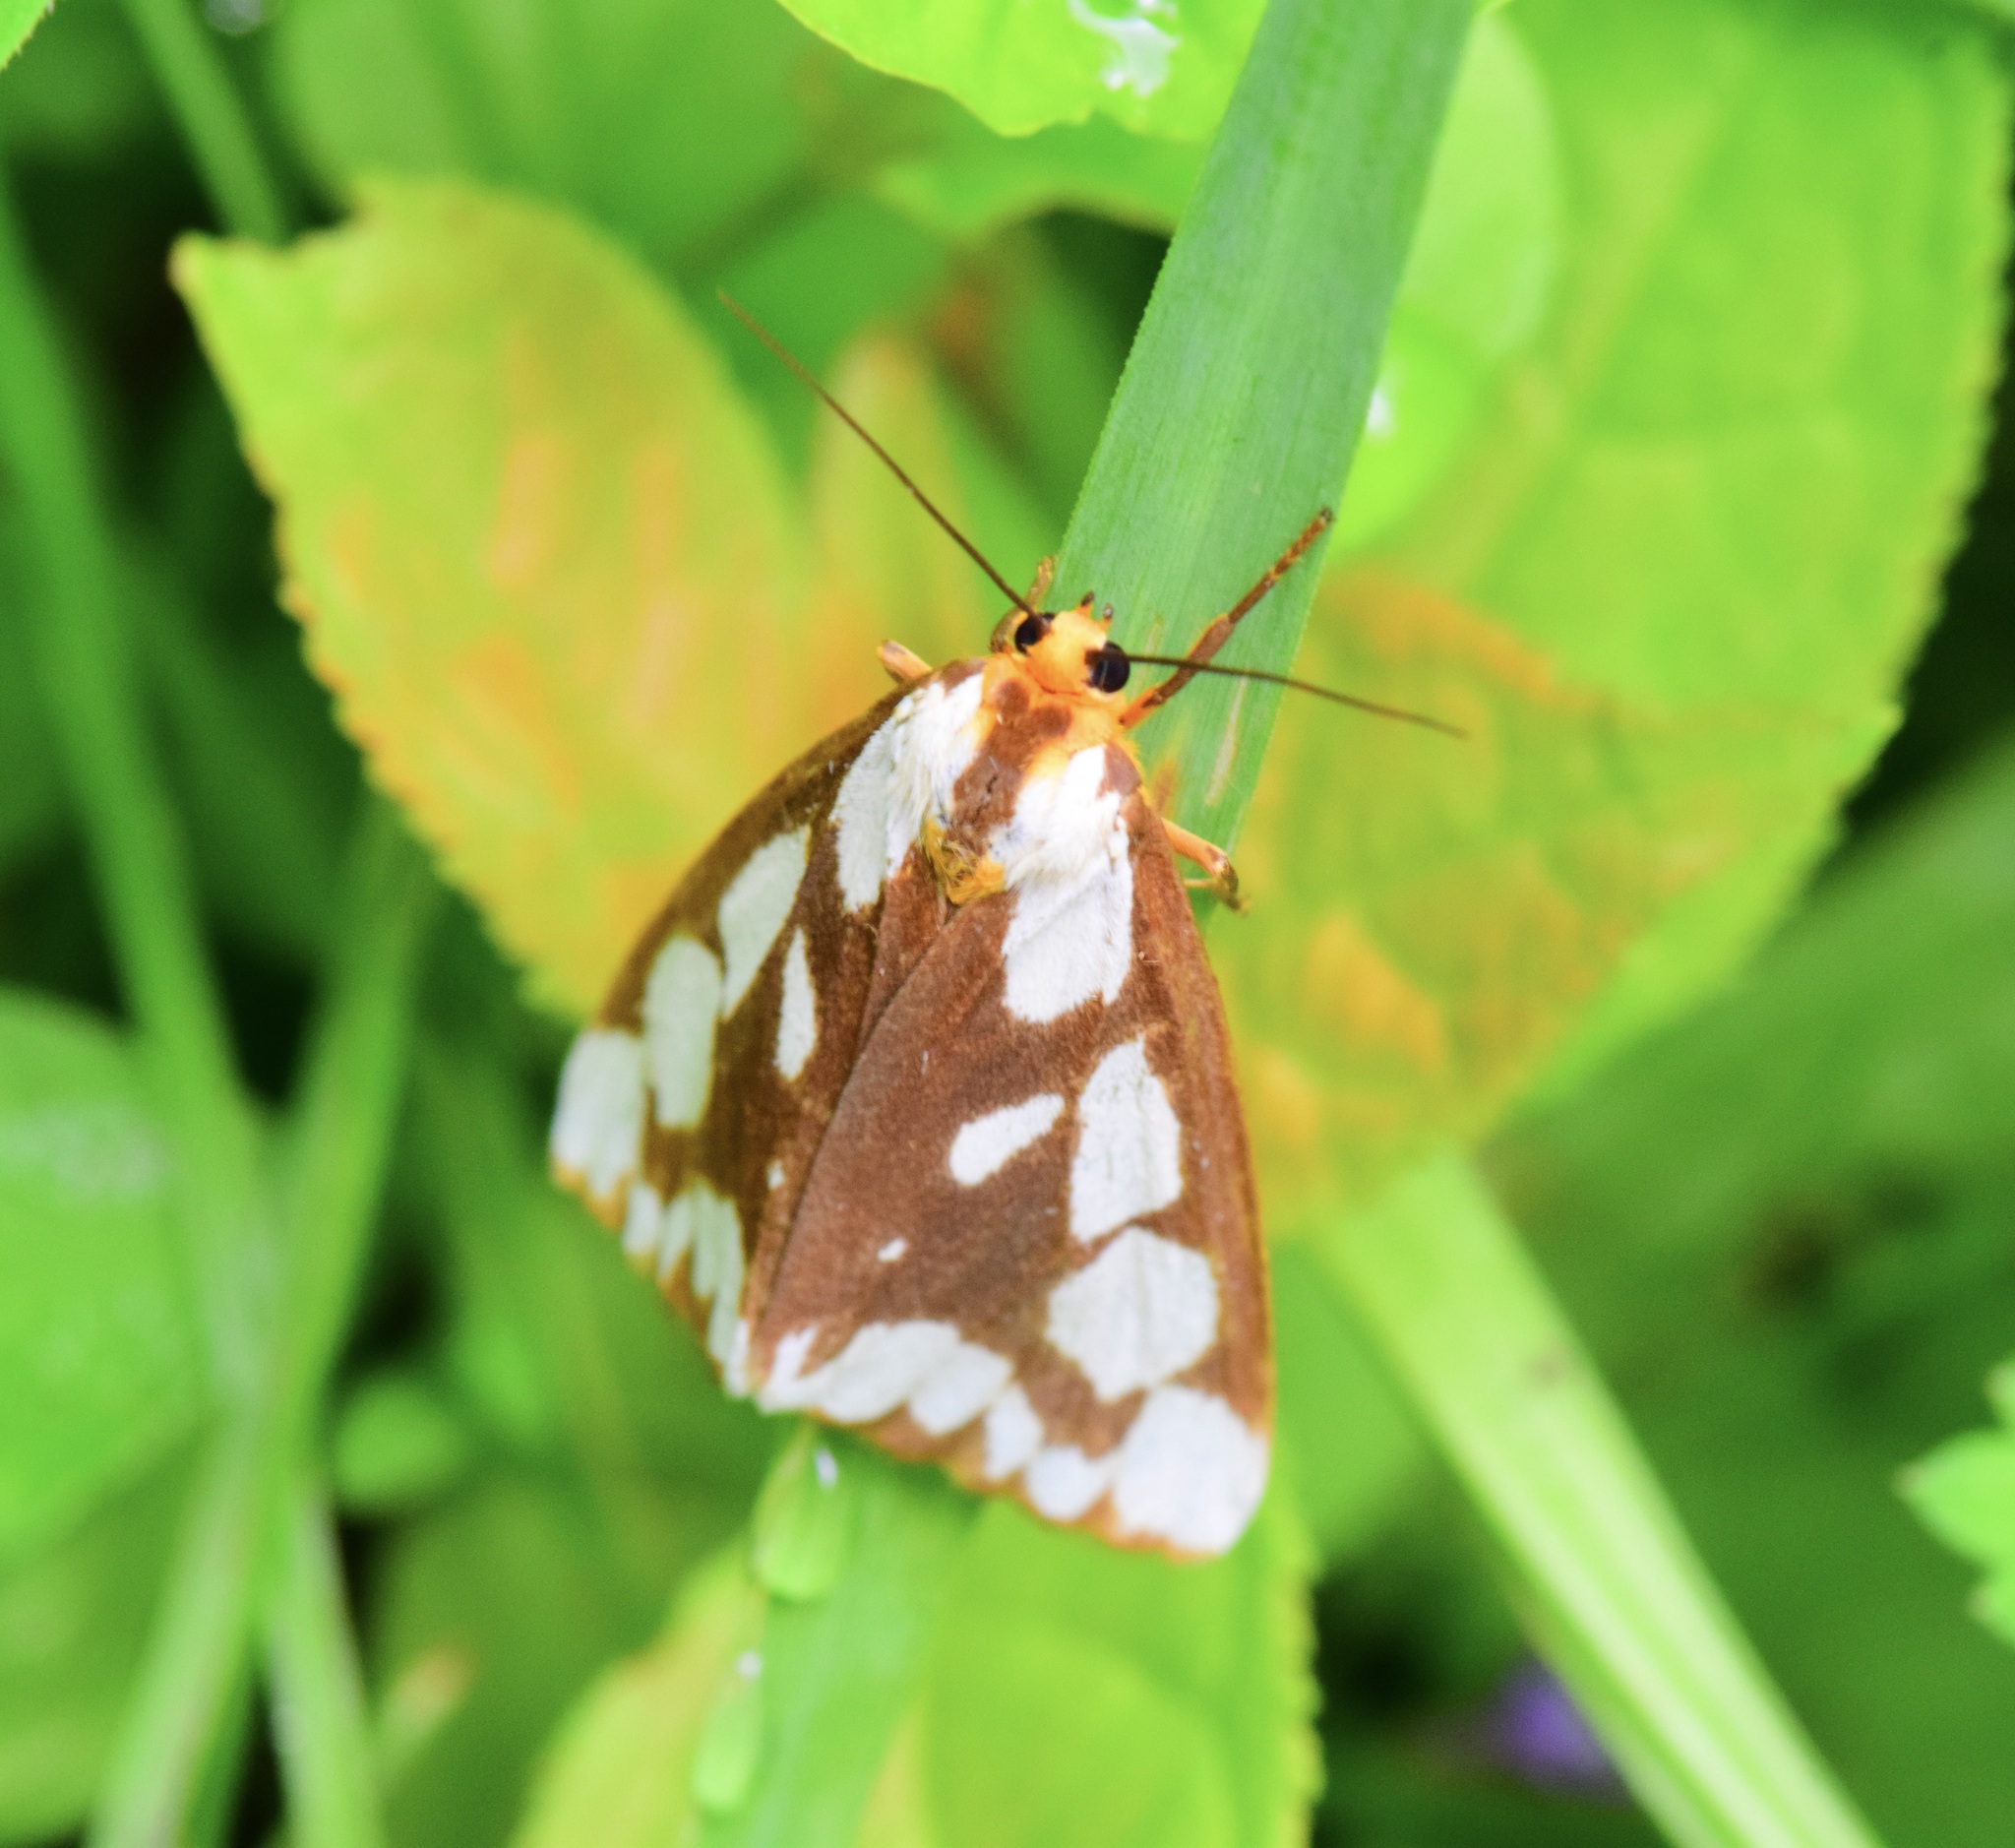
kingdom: Animalia
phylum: Arthropoda
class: Insecta
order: Lepidoptera
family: Erebidae
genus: Haploa
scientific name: Haploa confusa
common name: Confused haploa moth
